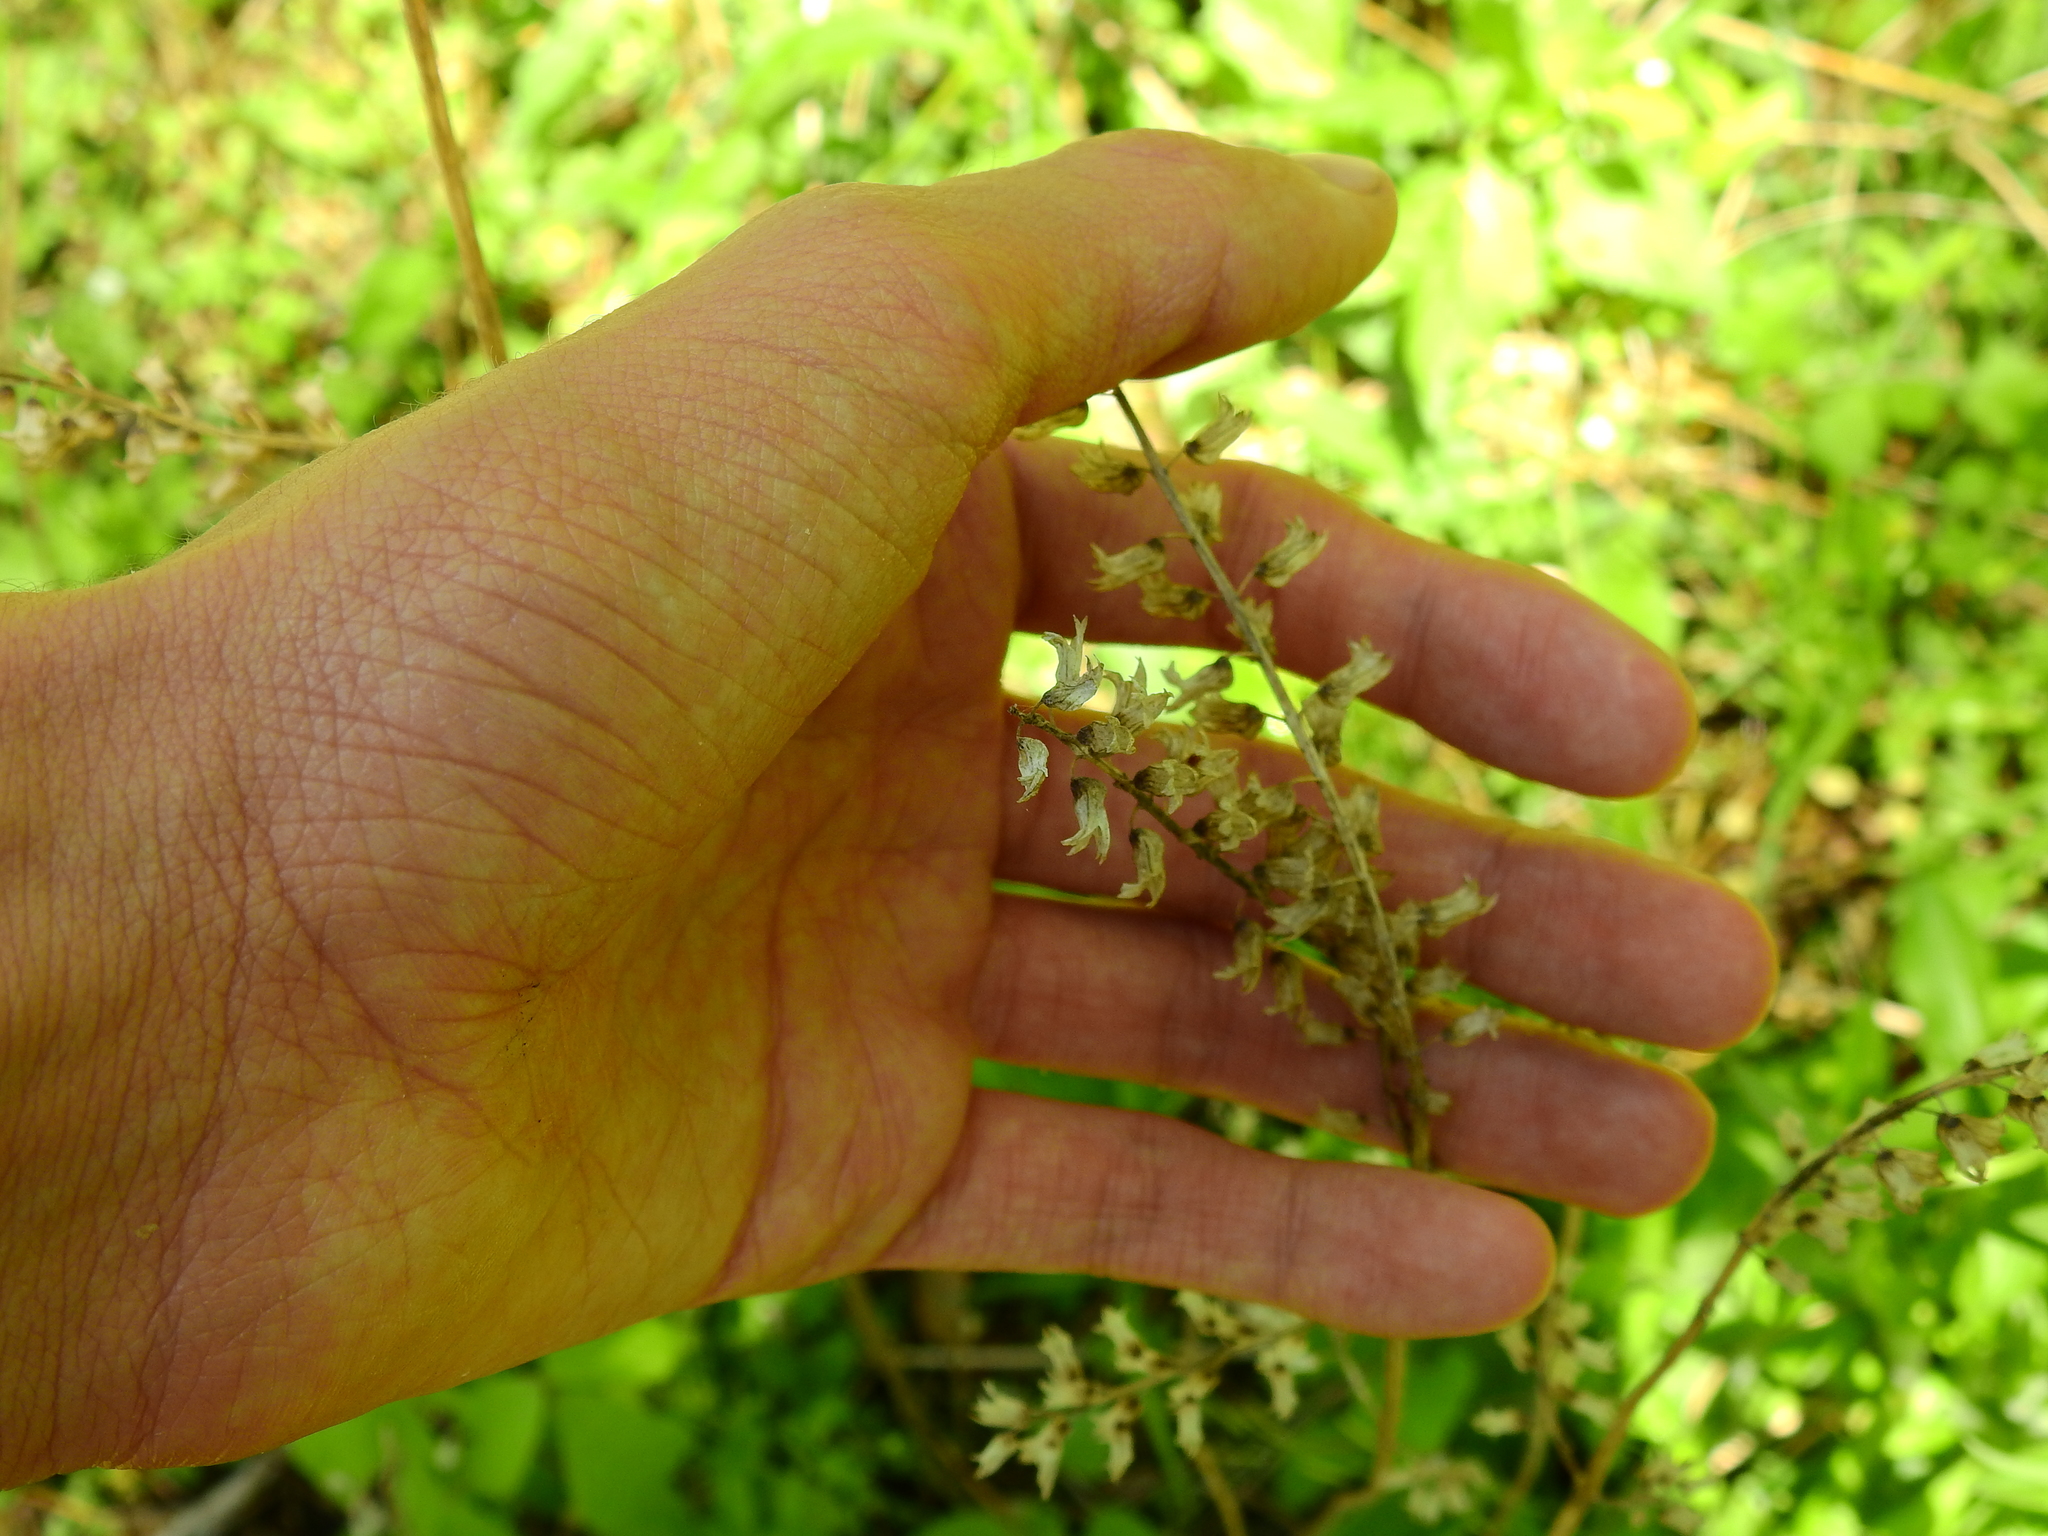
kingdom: Plantae
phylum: Tracheophyta
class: Magnoliopsida
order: Lamiales
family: Lamiaceae
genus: Perilla
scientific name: Perilla frutescens
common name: Perilla
